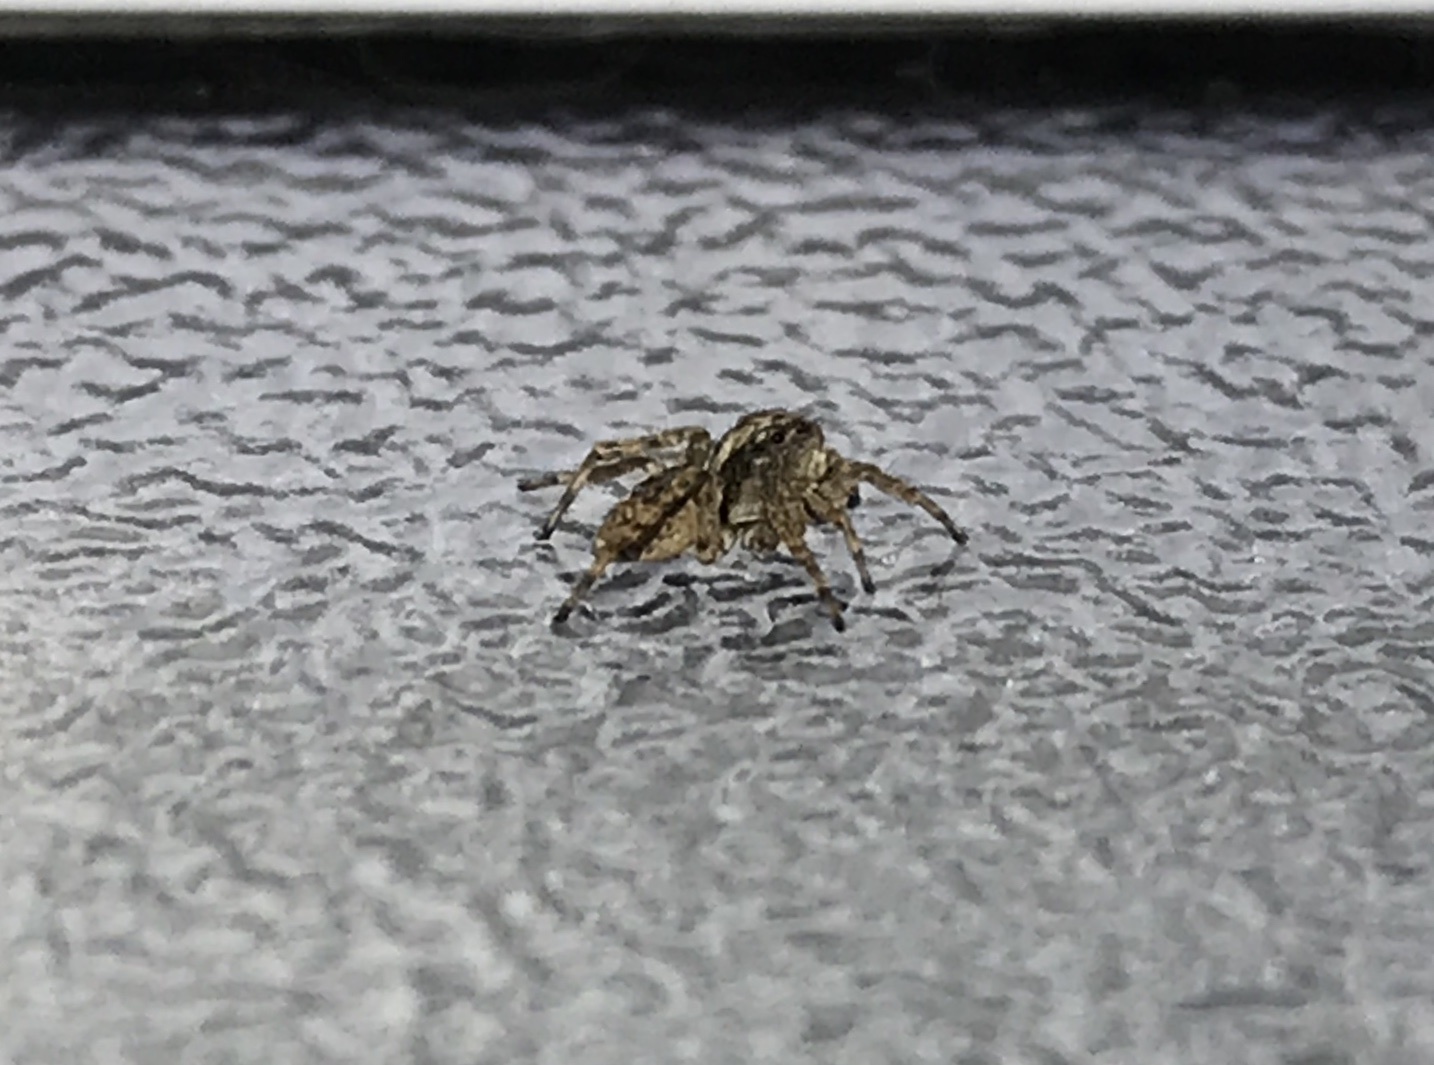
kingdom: Animalia
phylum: Arthropoda
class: Arachnida
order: Araneae
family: Salticidae
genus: Attulus
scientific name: Attulus fasciger
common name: Asiatic wall jumping spider
